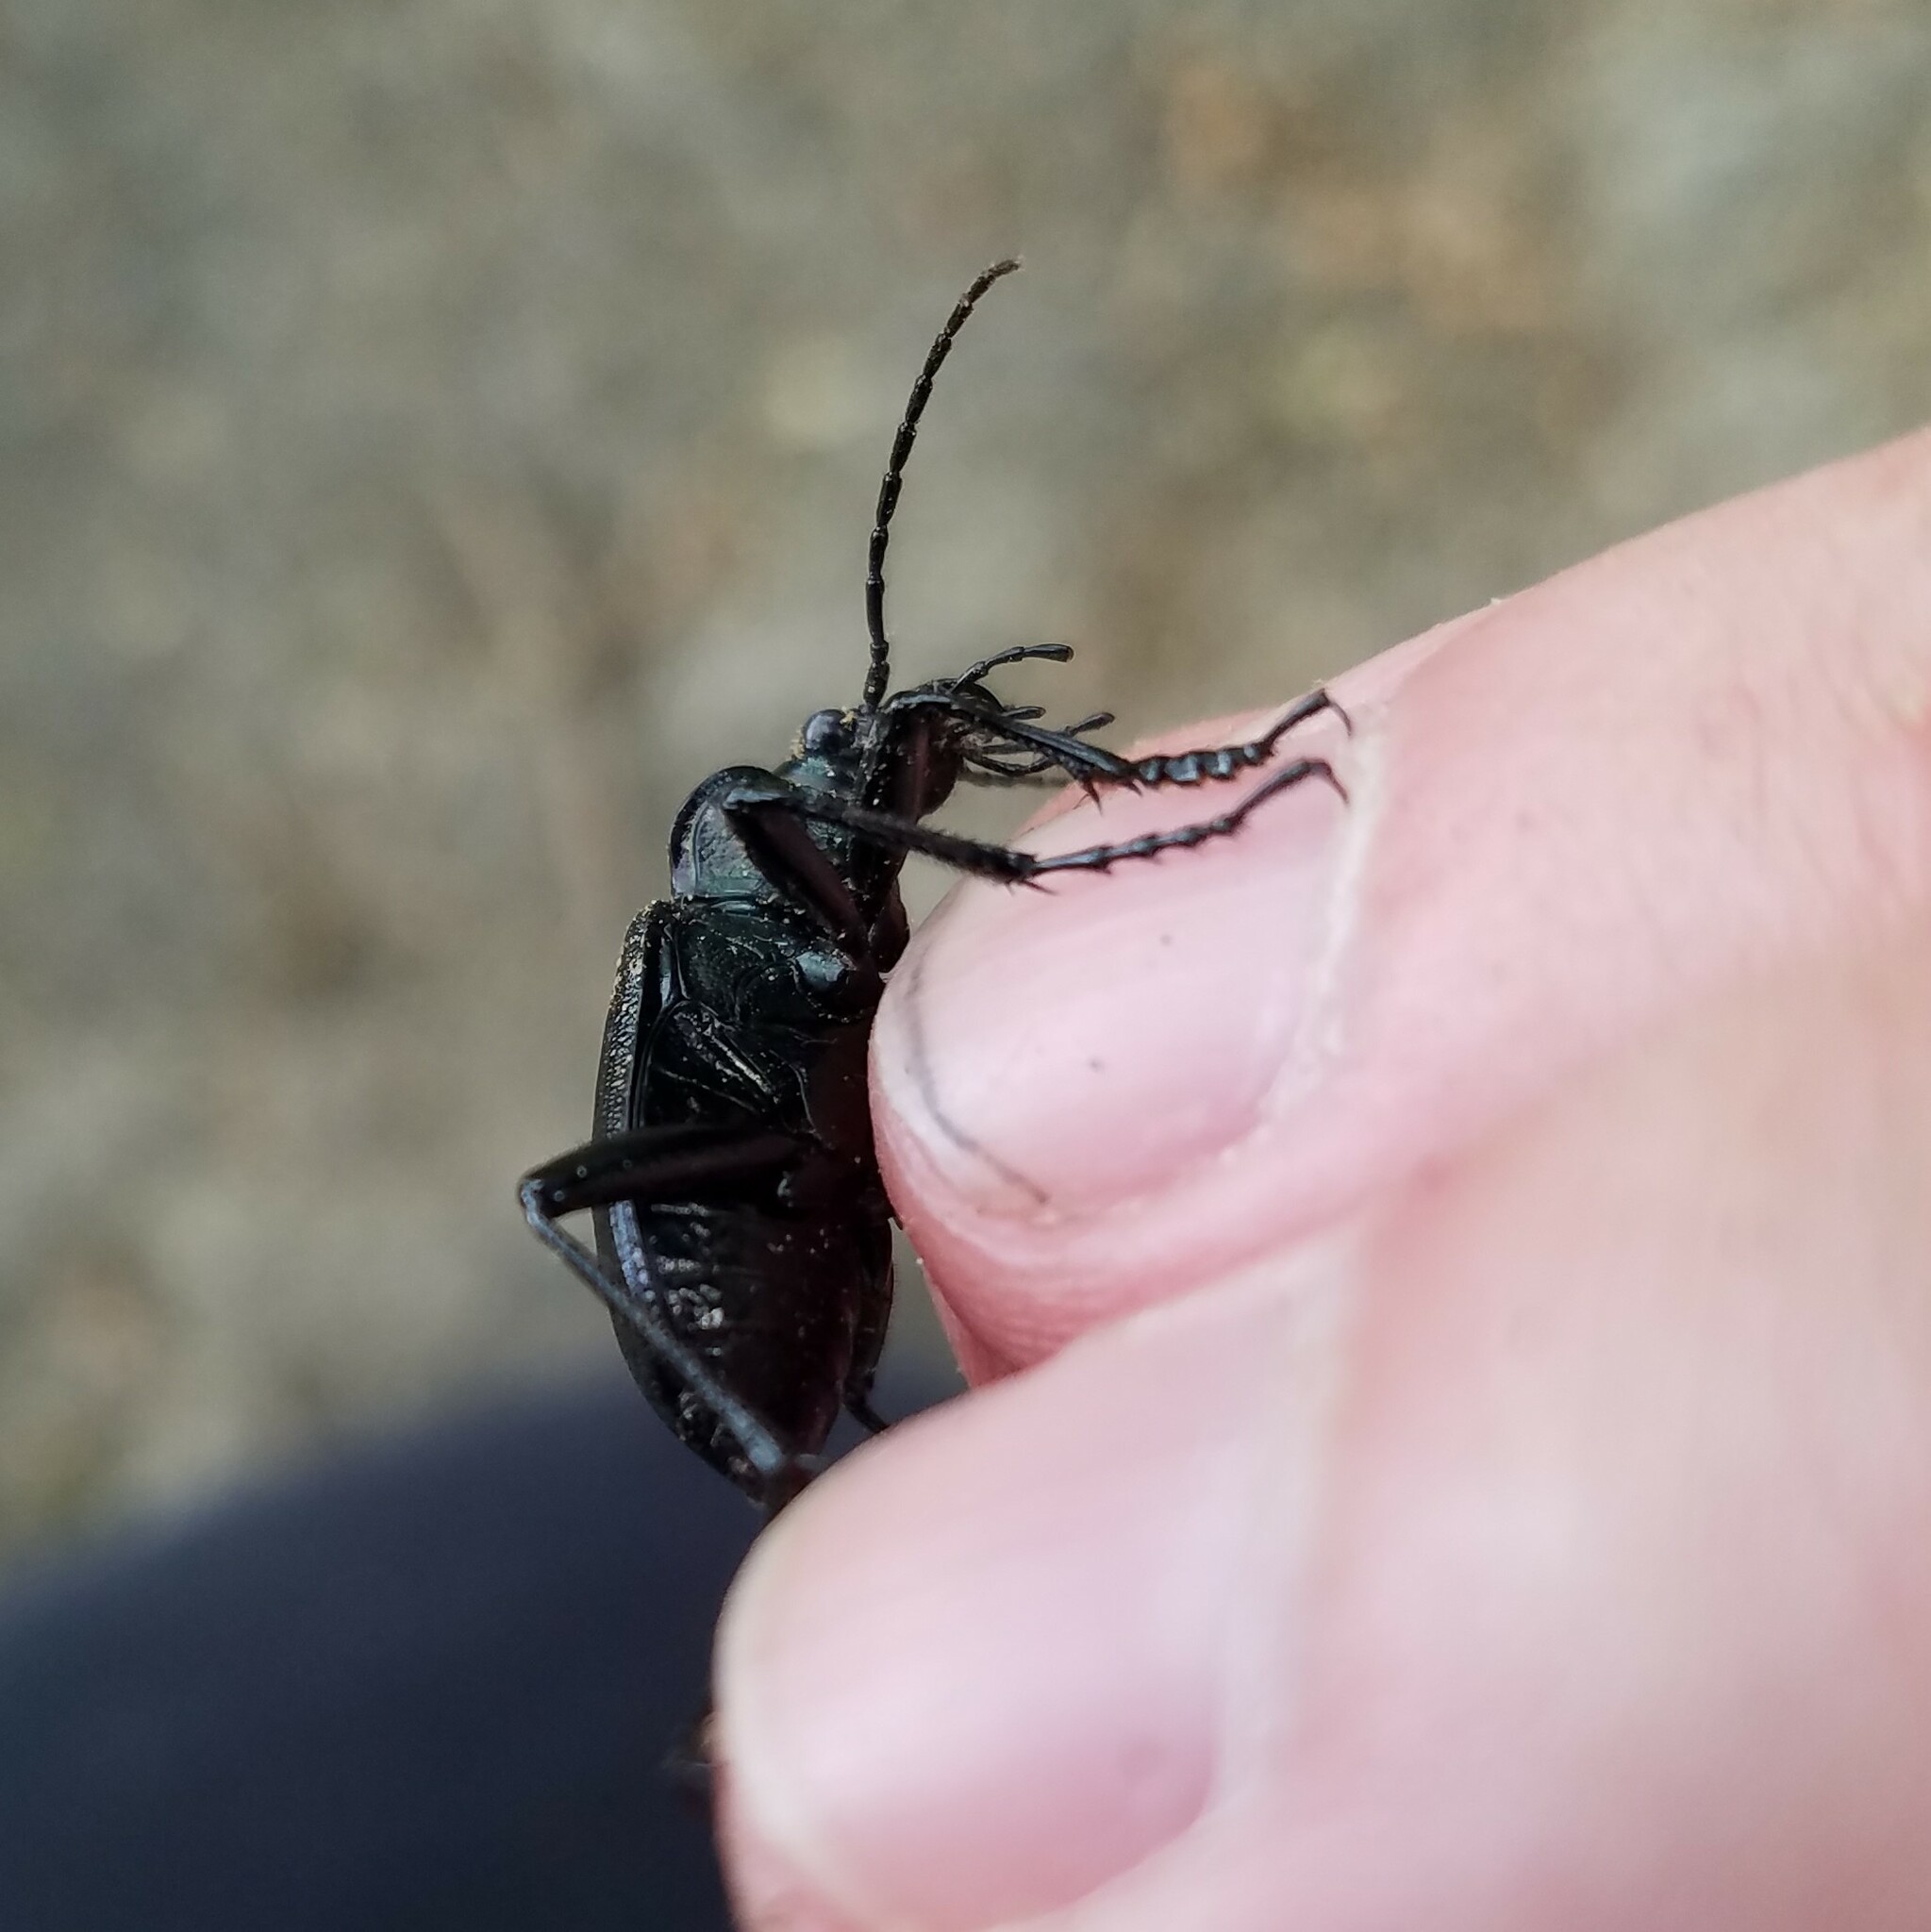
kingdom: Animalia
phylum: Arthropoda
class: Insecta
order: Coleoptera
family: Carabidae
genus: Calosoma
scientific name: Calosoma frigidum
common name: Cold-country caterpillar hunter
